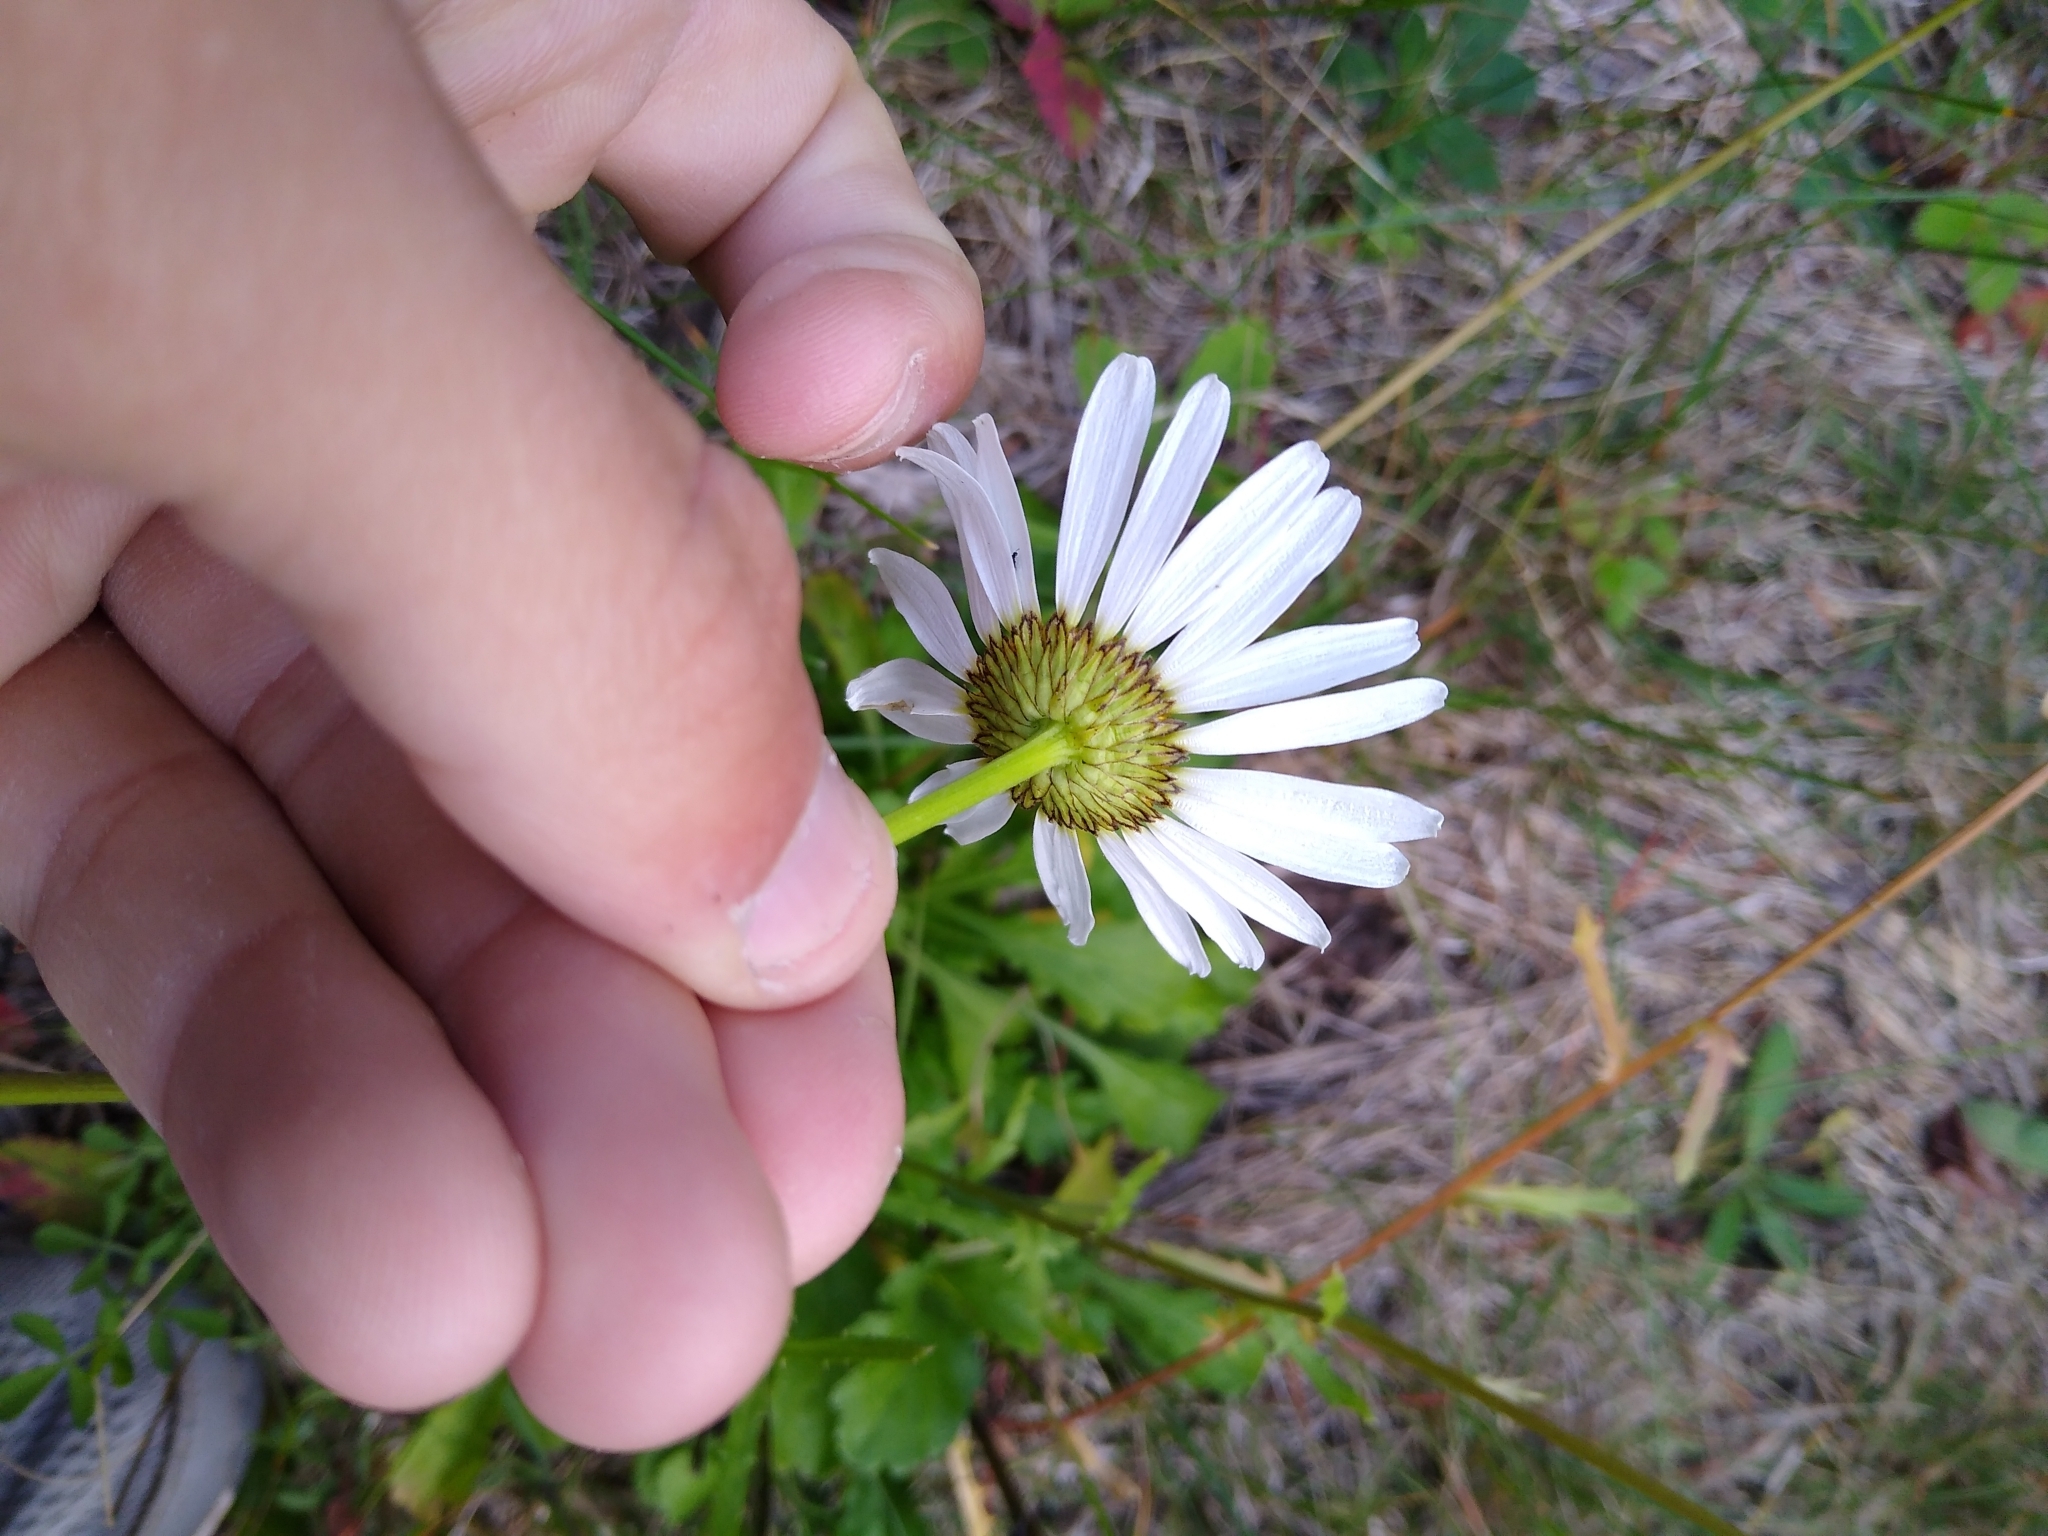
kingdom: Plantae
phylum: Tracheophyta
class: Magnoliopsida
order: Asterales
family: Asteraceae
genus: Leucanthemum
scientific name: Leucanthemum vulgare
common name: Oxeye daisy
